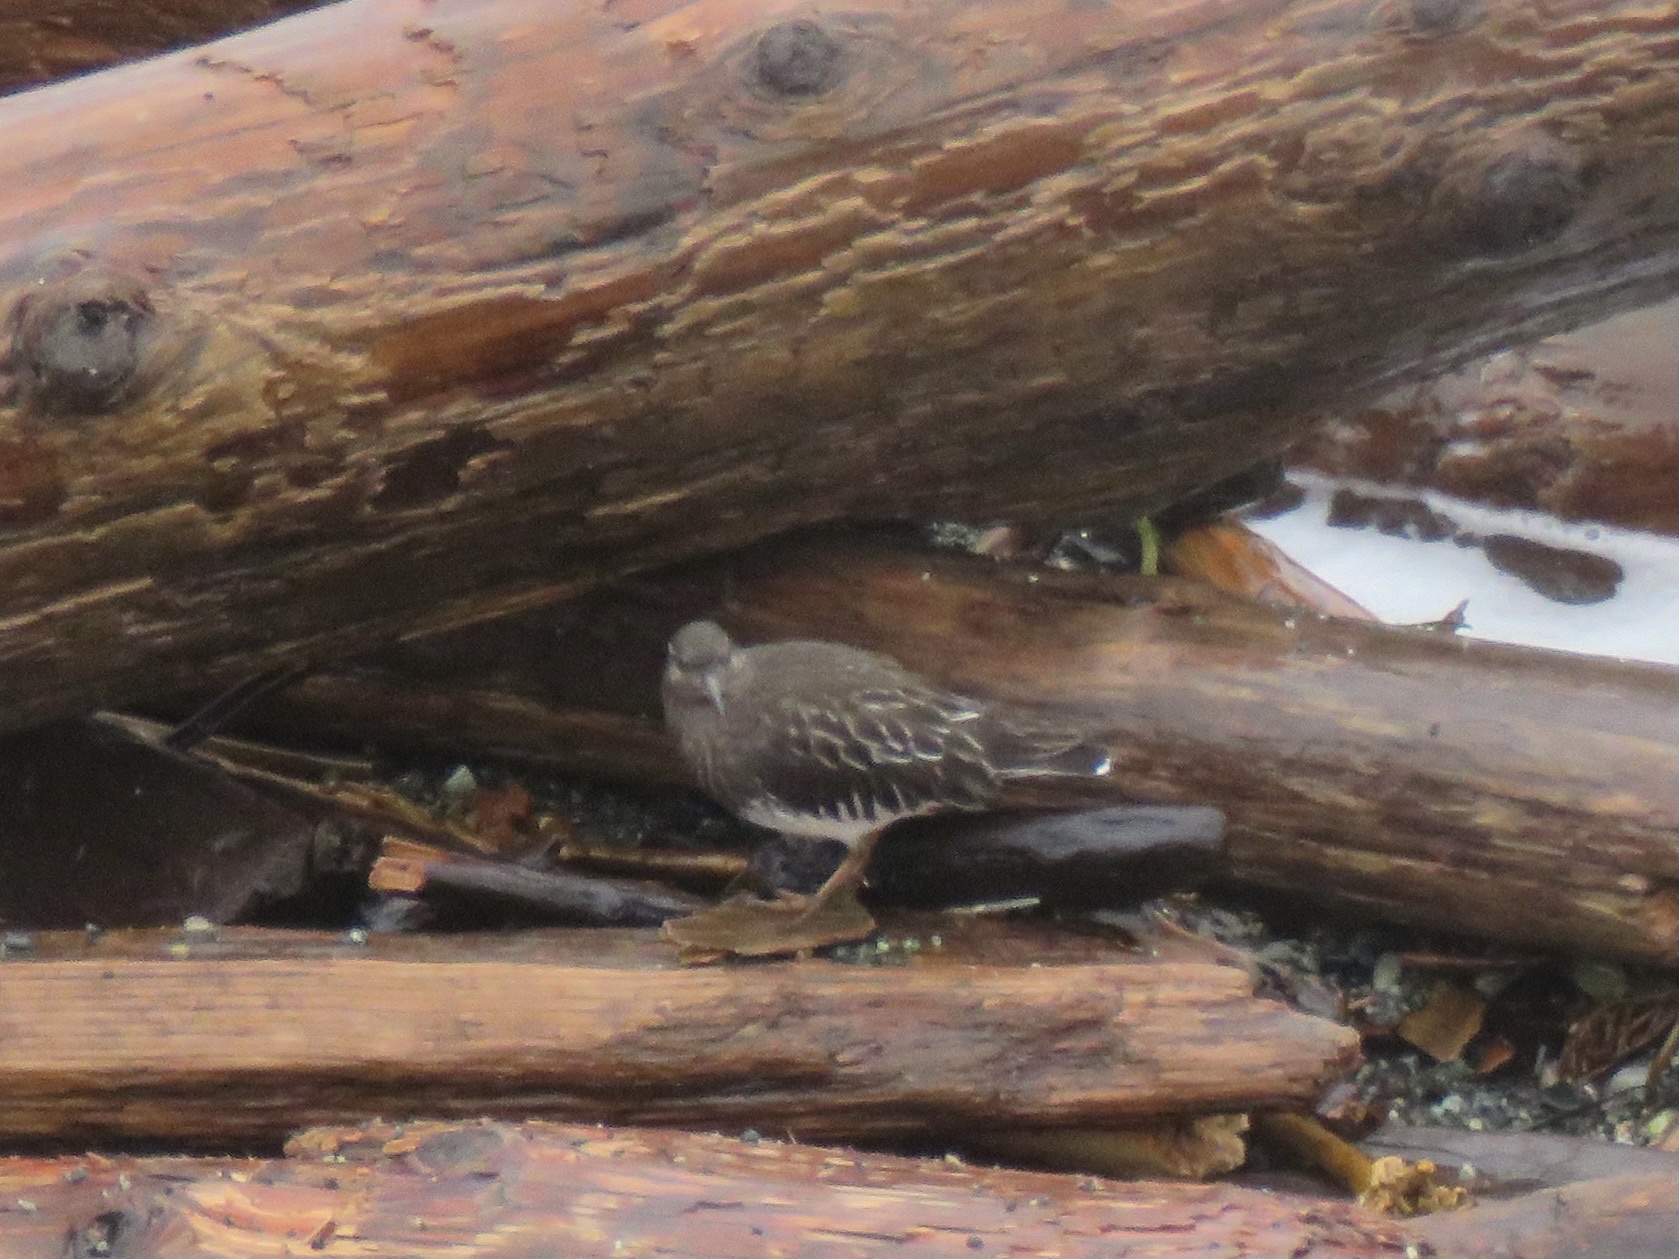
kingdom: Animalia
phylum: Chordata
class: Aves
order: Charadriiformes
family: Scolopacidae
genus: Arenaria
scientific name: Arenaria melanocephala
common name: Black turnstone
